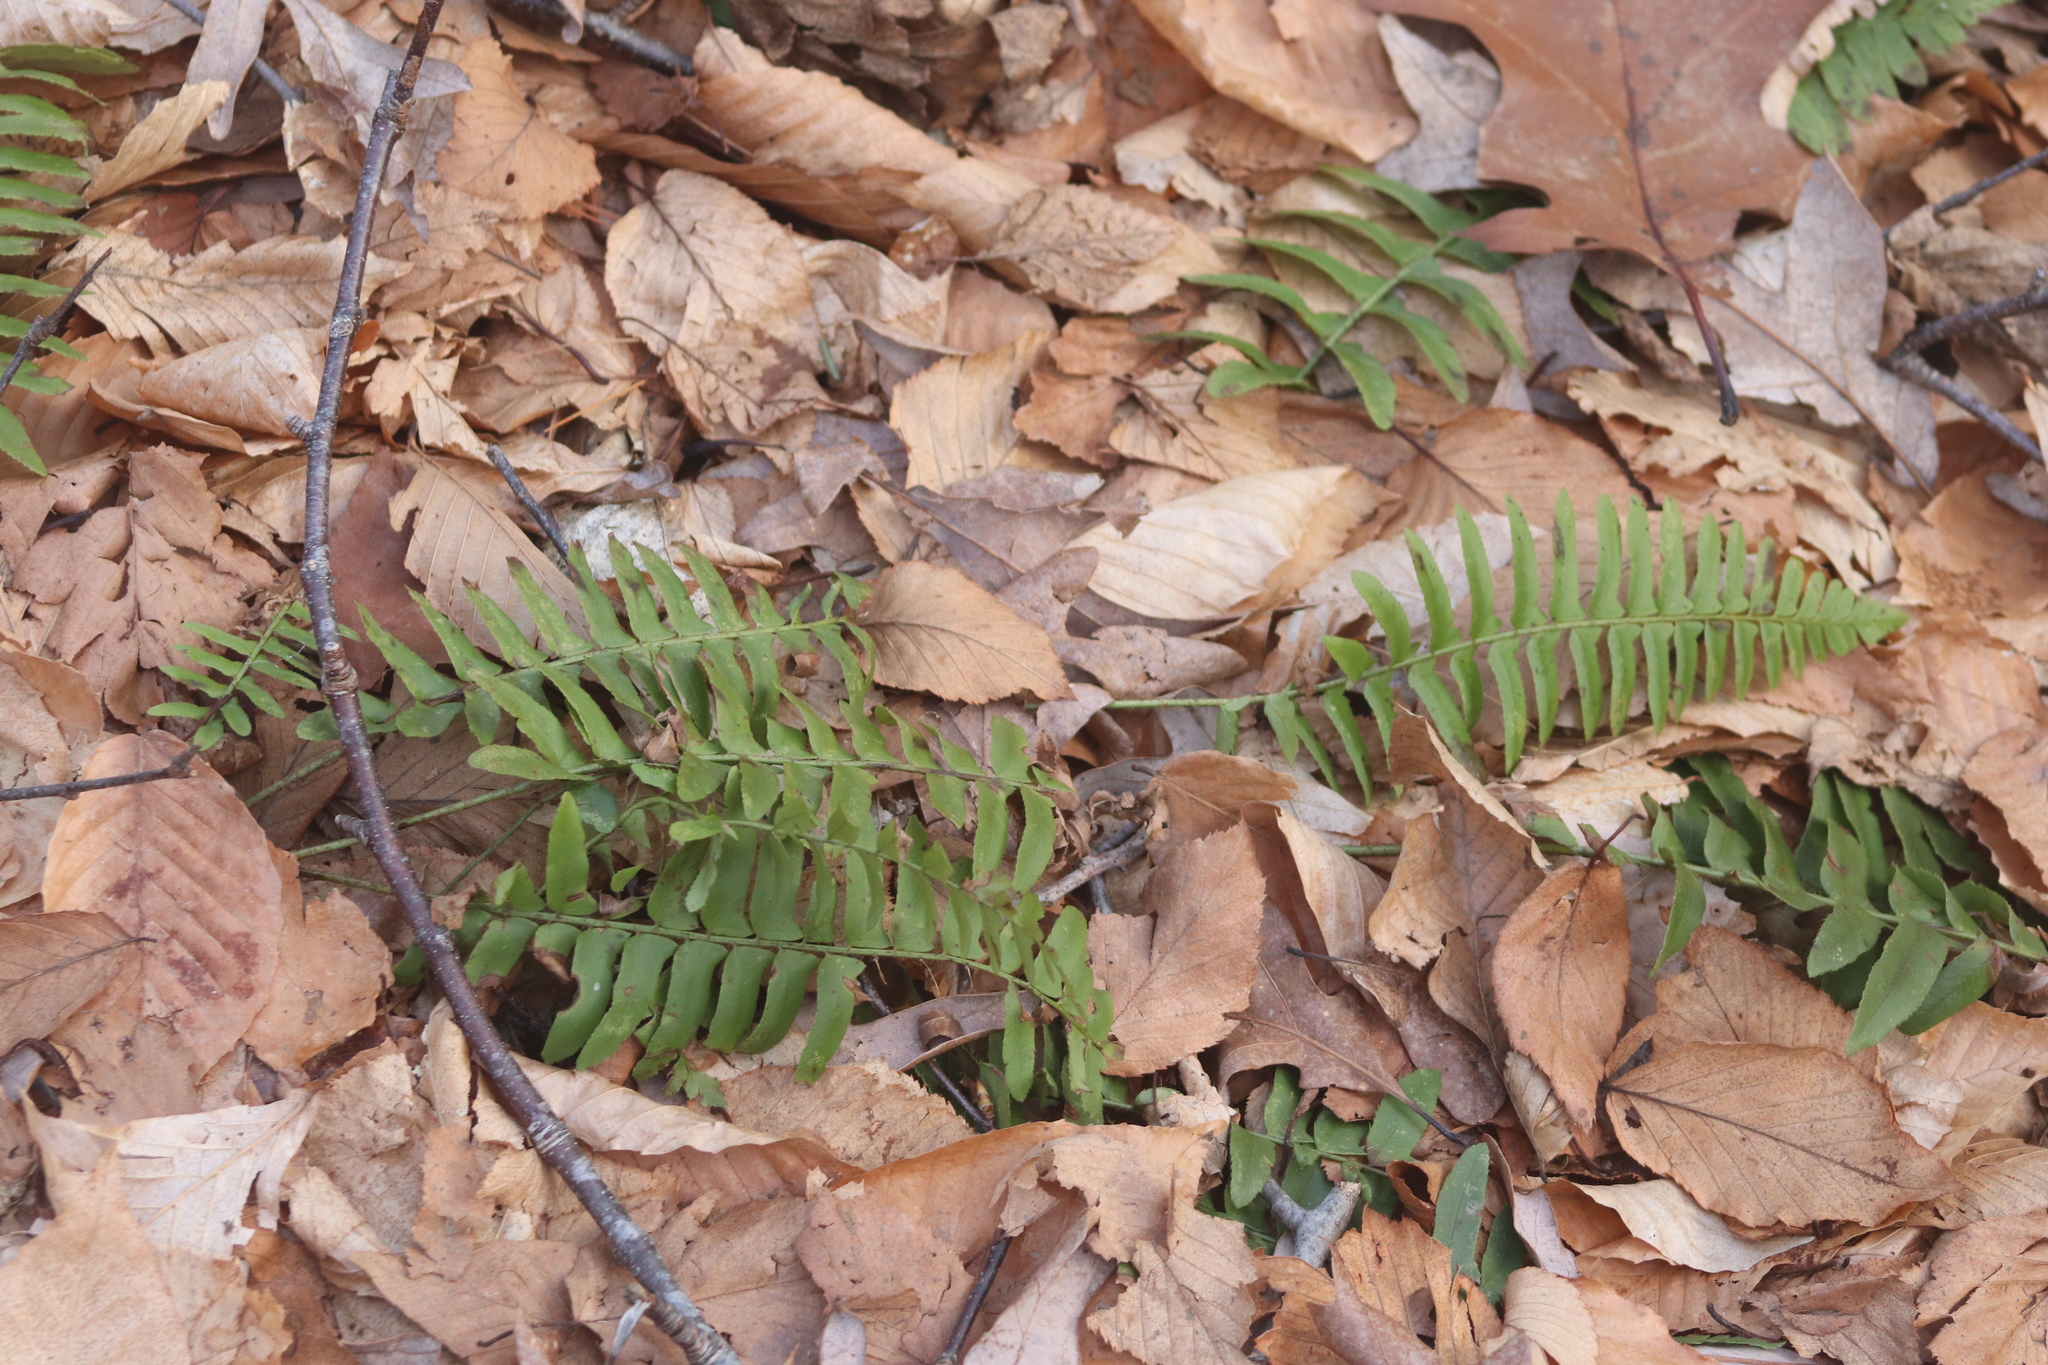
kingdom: Plantae
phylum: Tracheophyta
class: Polypodiopsida
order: Polypodiales
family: Dryopteridaceae
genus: Polystichum
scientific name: Polystichum acrostichoides
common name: Christmas fern
